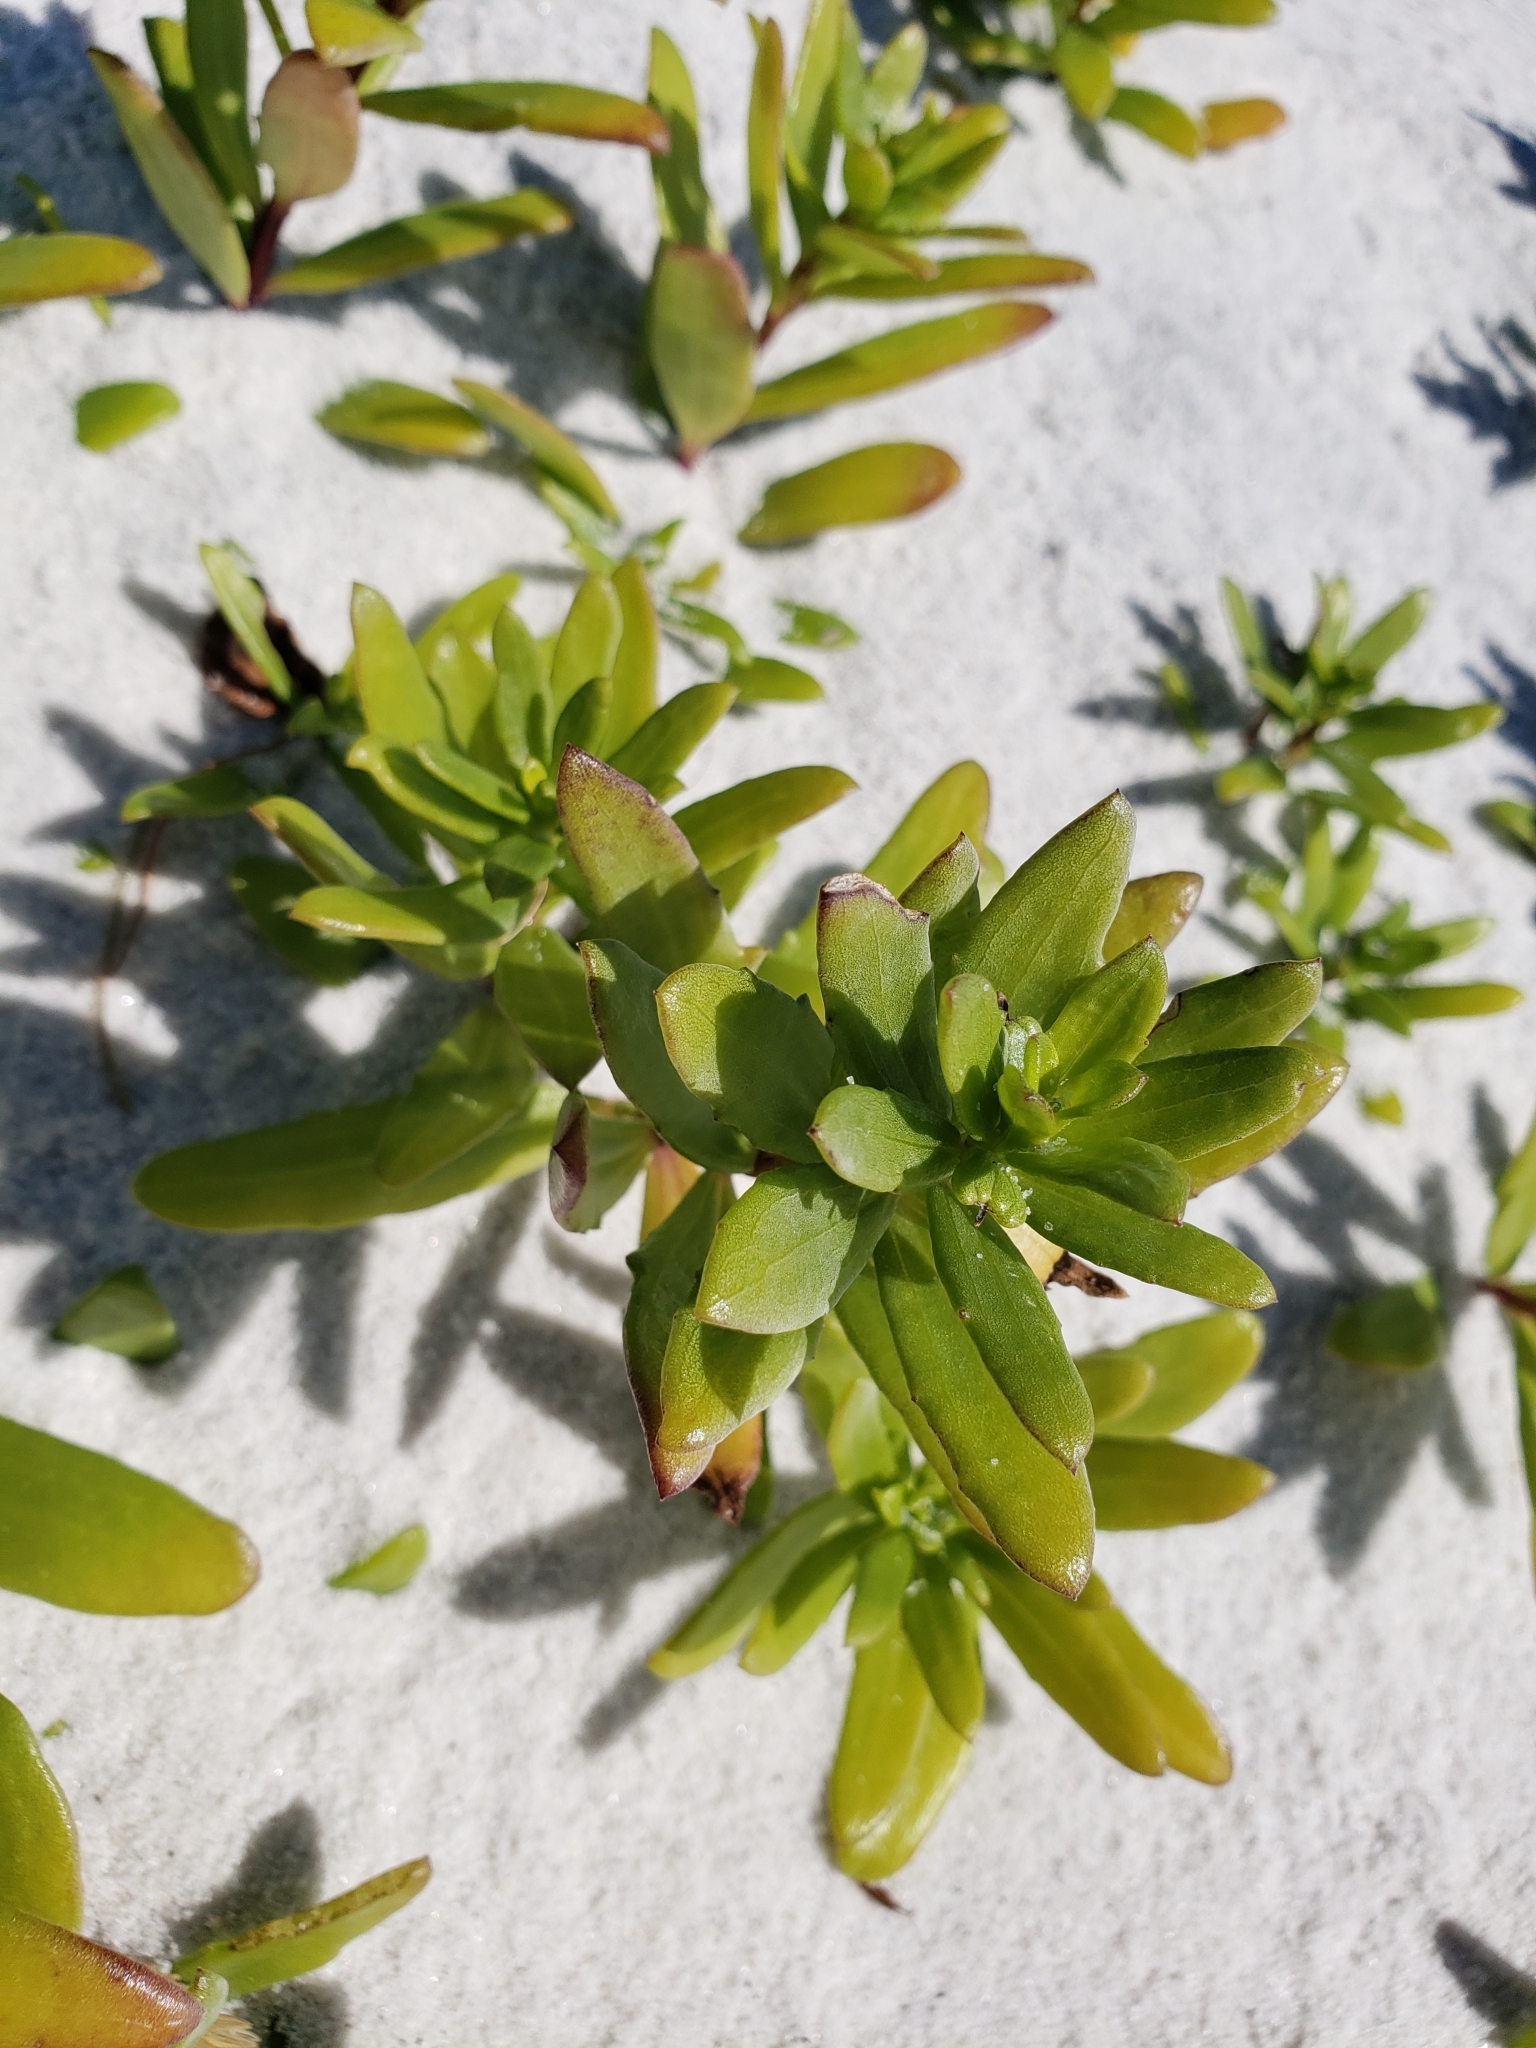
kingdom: Plantae
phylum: Tracheophyta
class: Magnoliopsida
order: Asterales
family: Asteraceae
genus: Iva
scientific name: Iva imbricata
